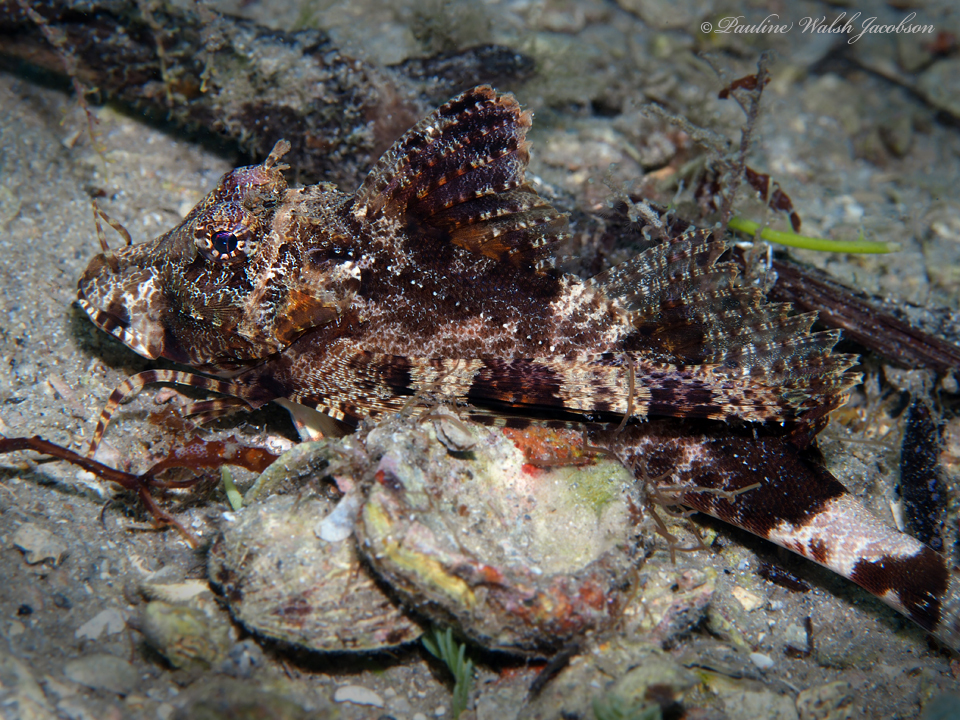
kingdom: Animalia
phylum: Chordata
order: Scorpaeniformes
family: Triglidae
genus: Prionotus
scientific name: Prionotus ophryas
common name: Bandtail searobin
